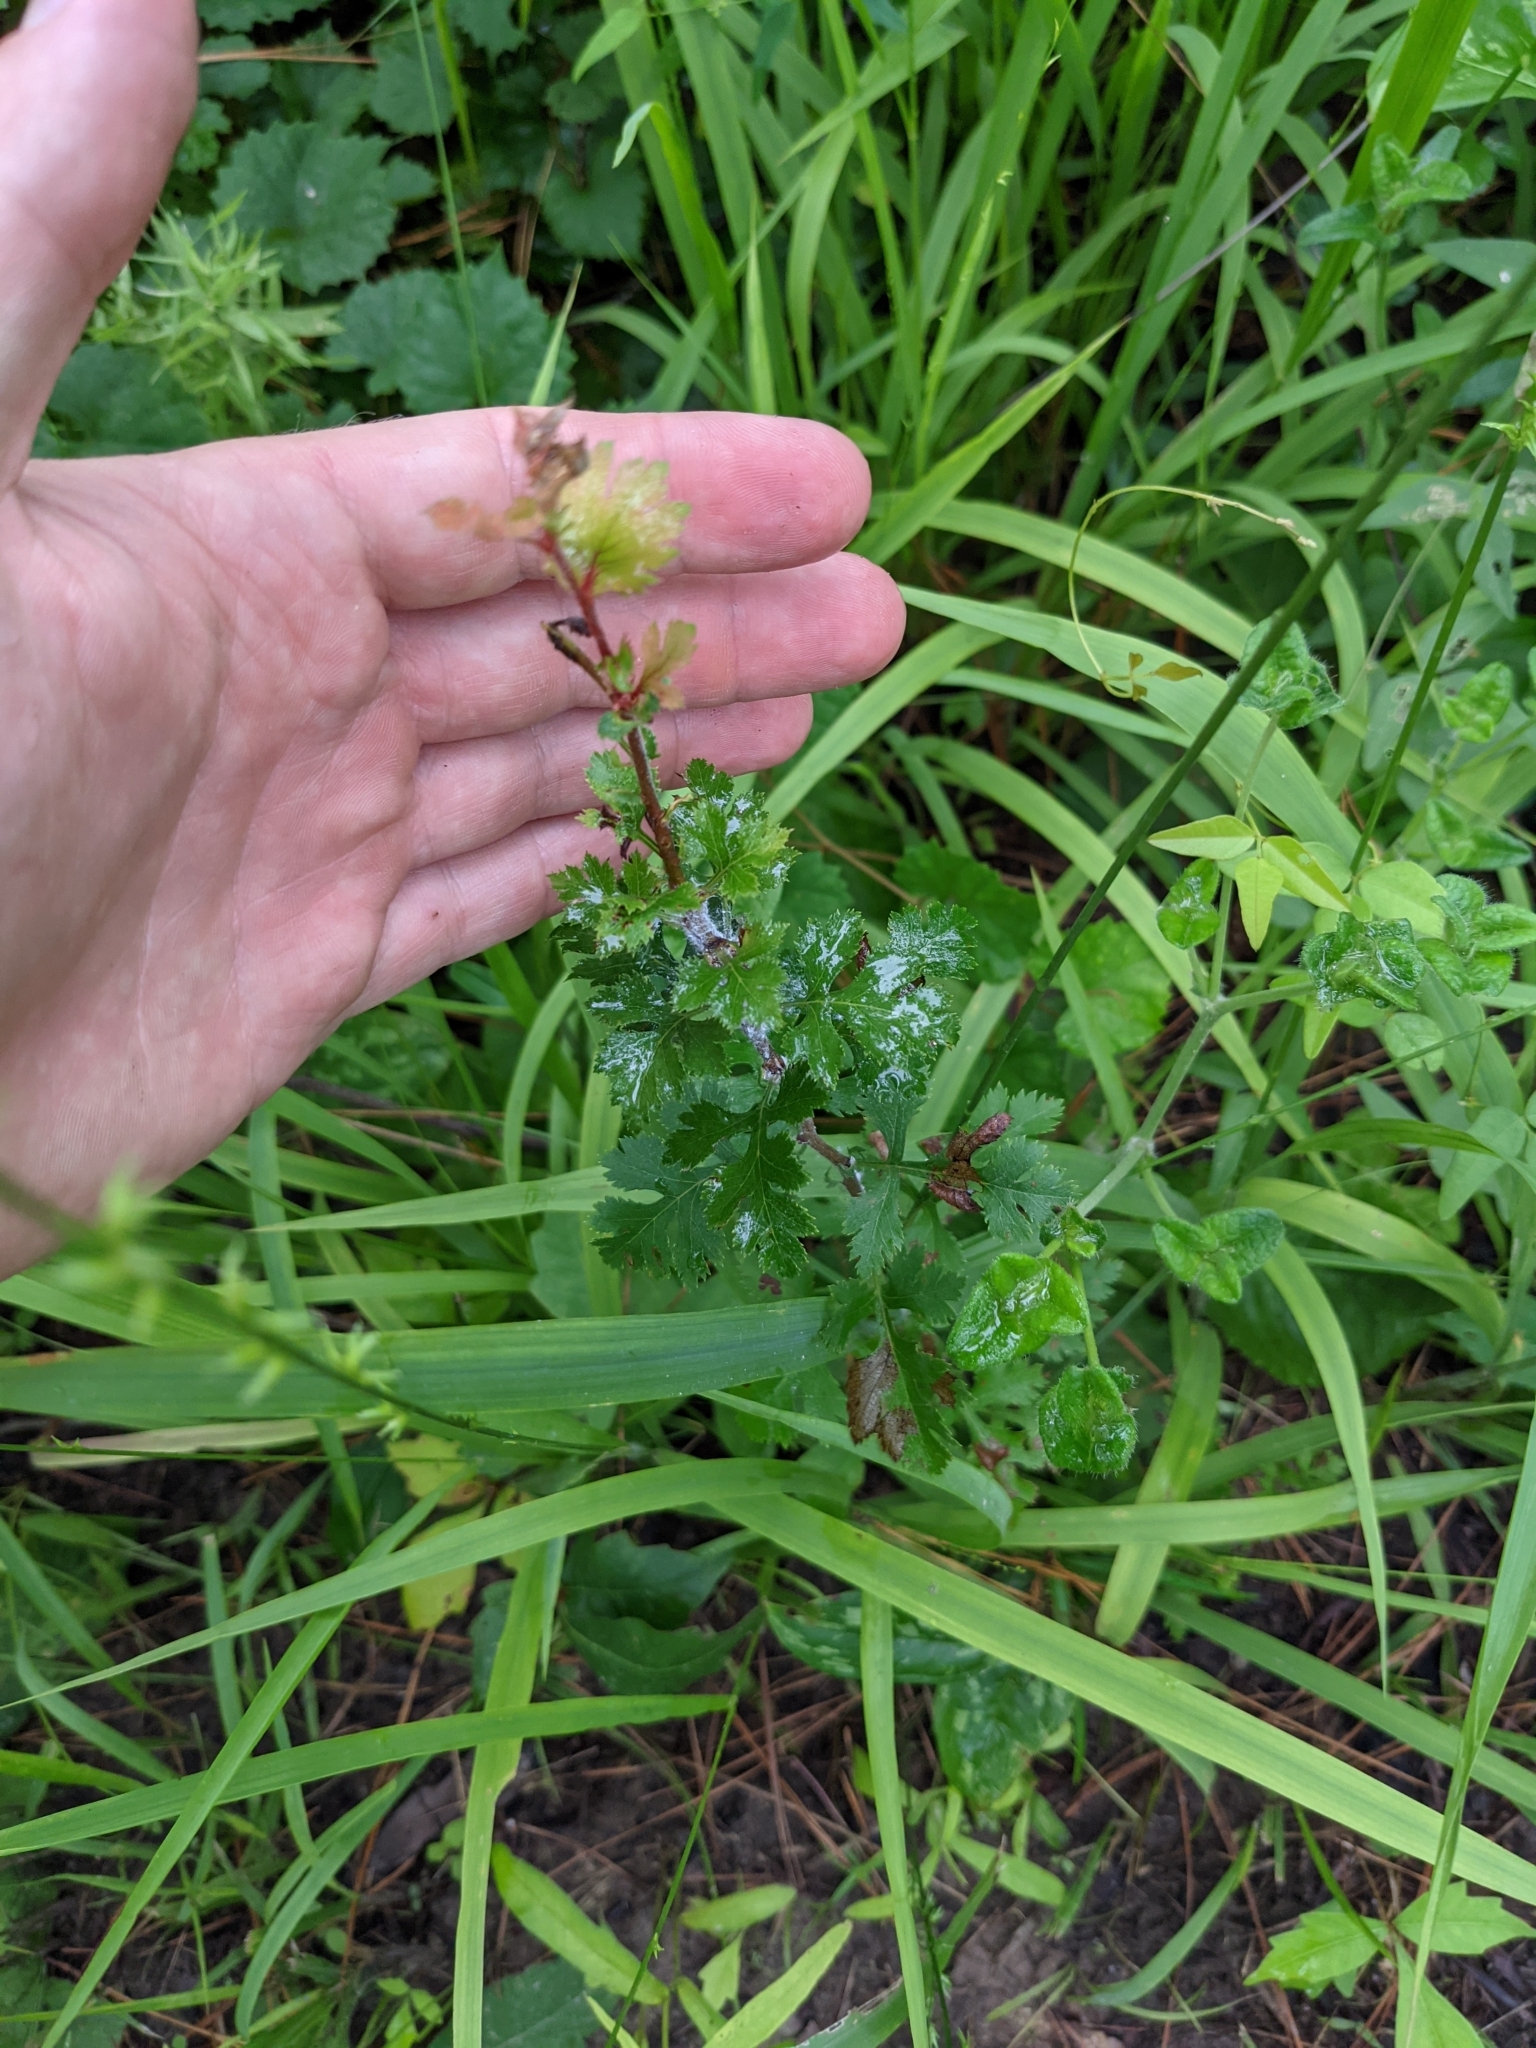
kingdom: Plantae
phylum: Tracheophyta
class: Magnoliopsida
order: Rosales
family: Rosaceae
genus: Crataegus
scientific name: Crataegus marshallii
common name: Parsley-hawthorn
